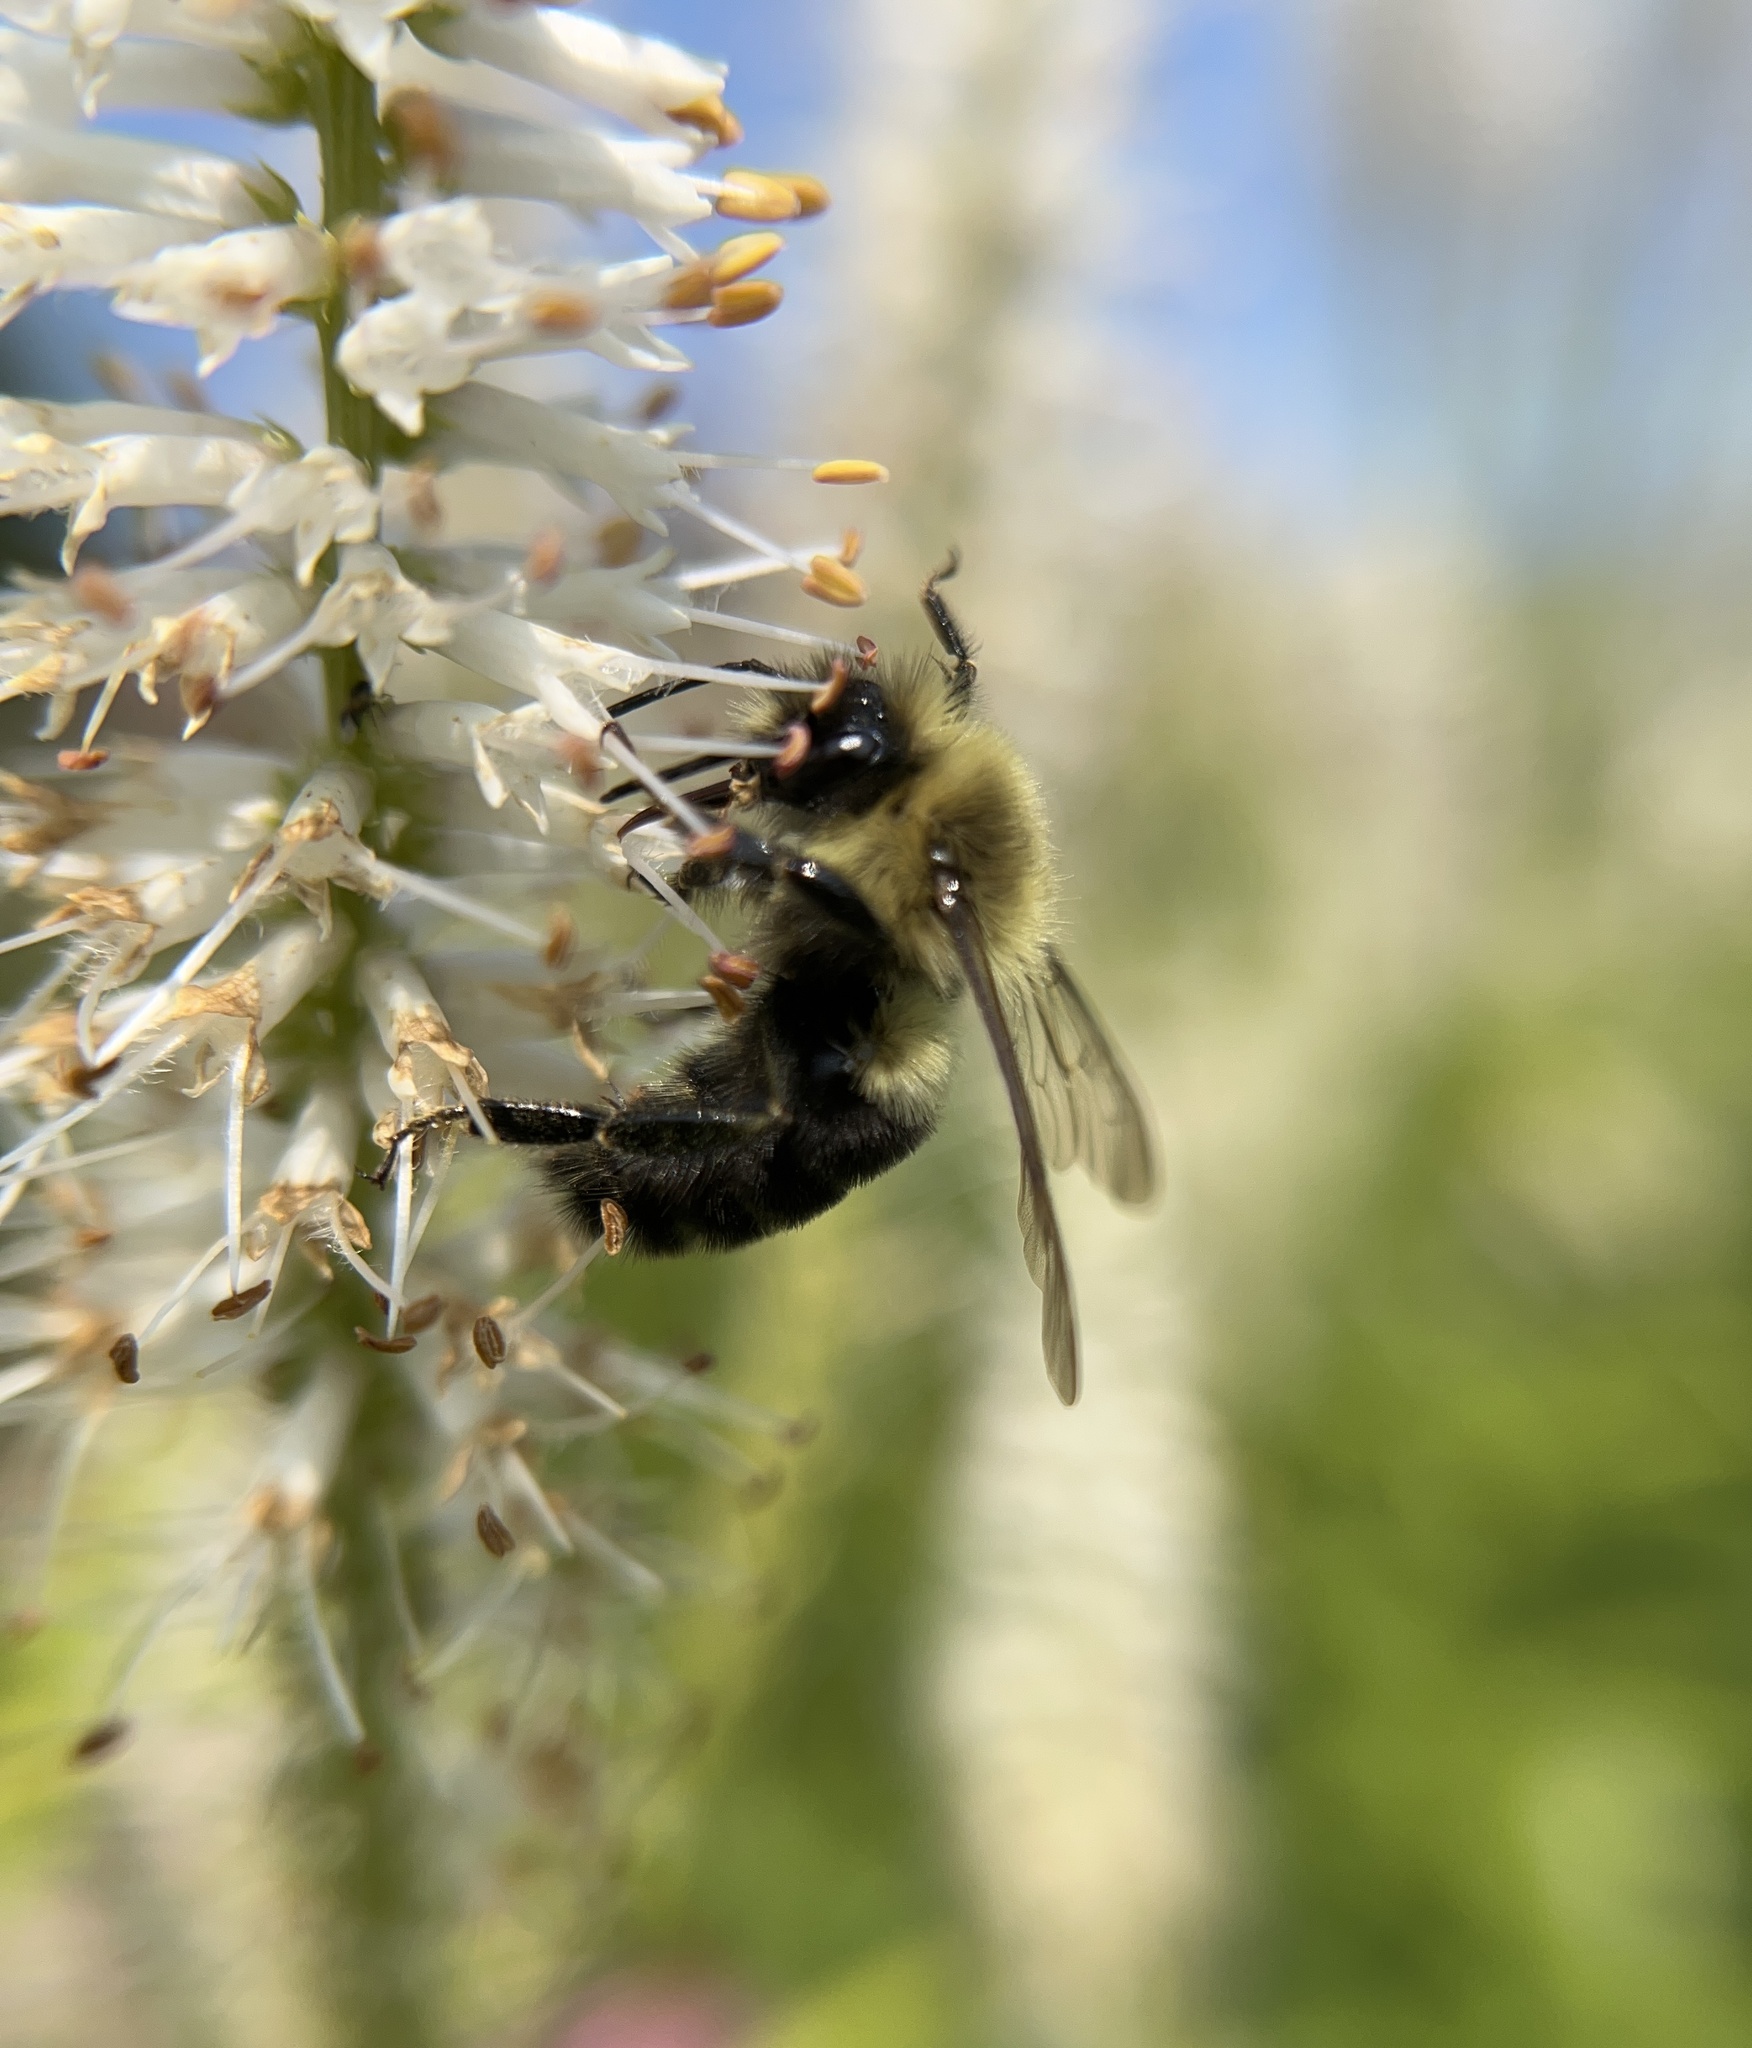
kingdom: Animalia
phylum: Arthropoda
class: Insecta
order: Hymenoptera
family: Apidae
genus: Bombus
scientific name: Bombus impatiens
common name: Common eastern bumble bee
